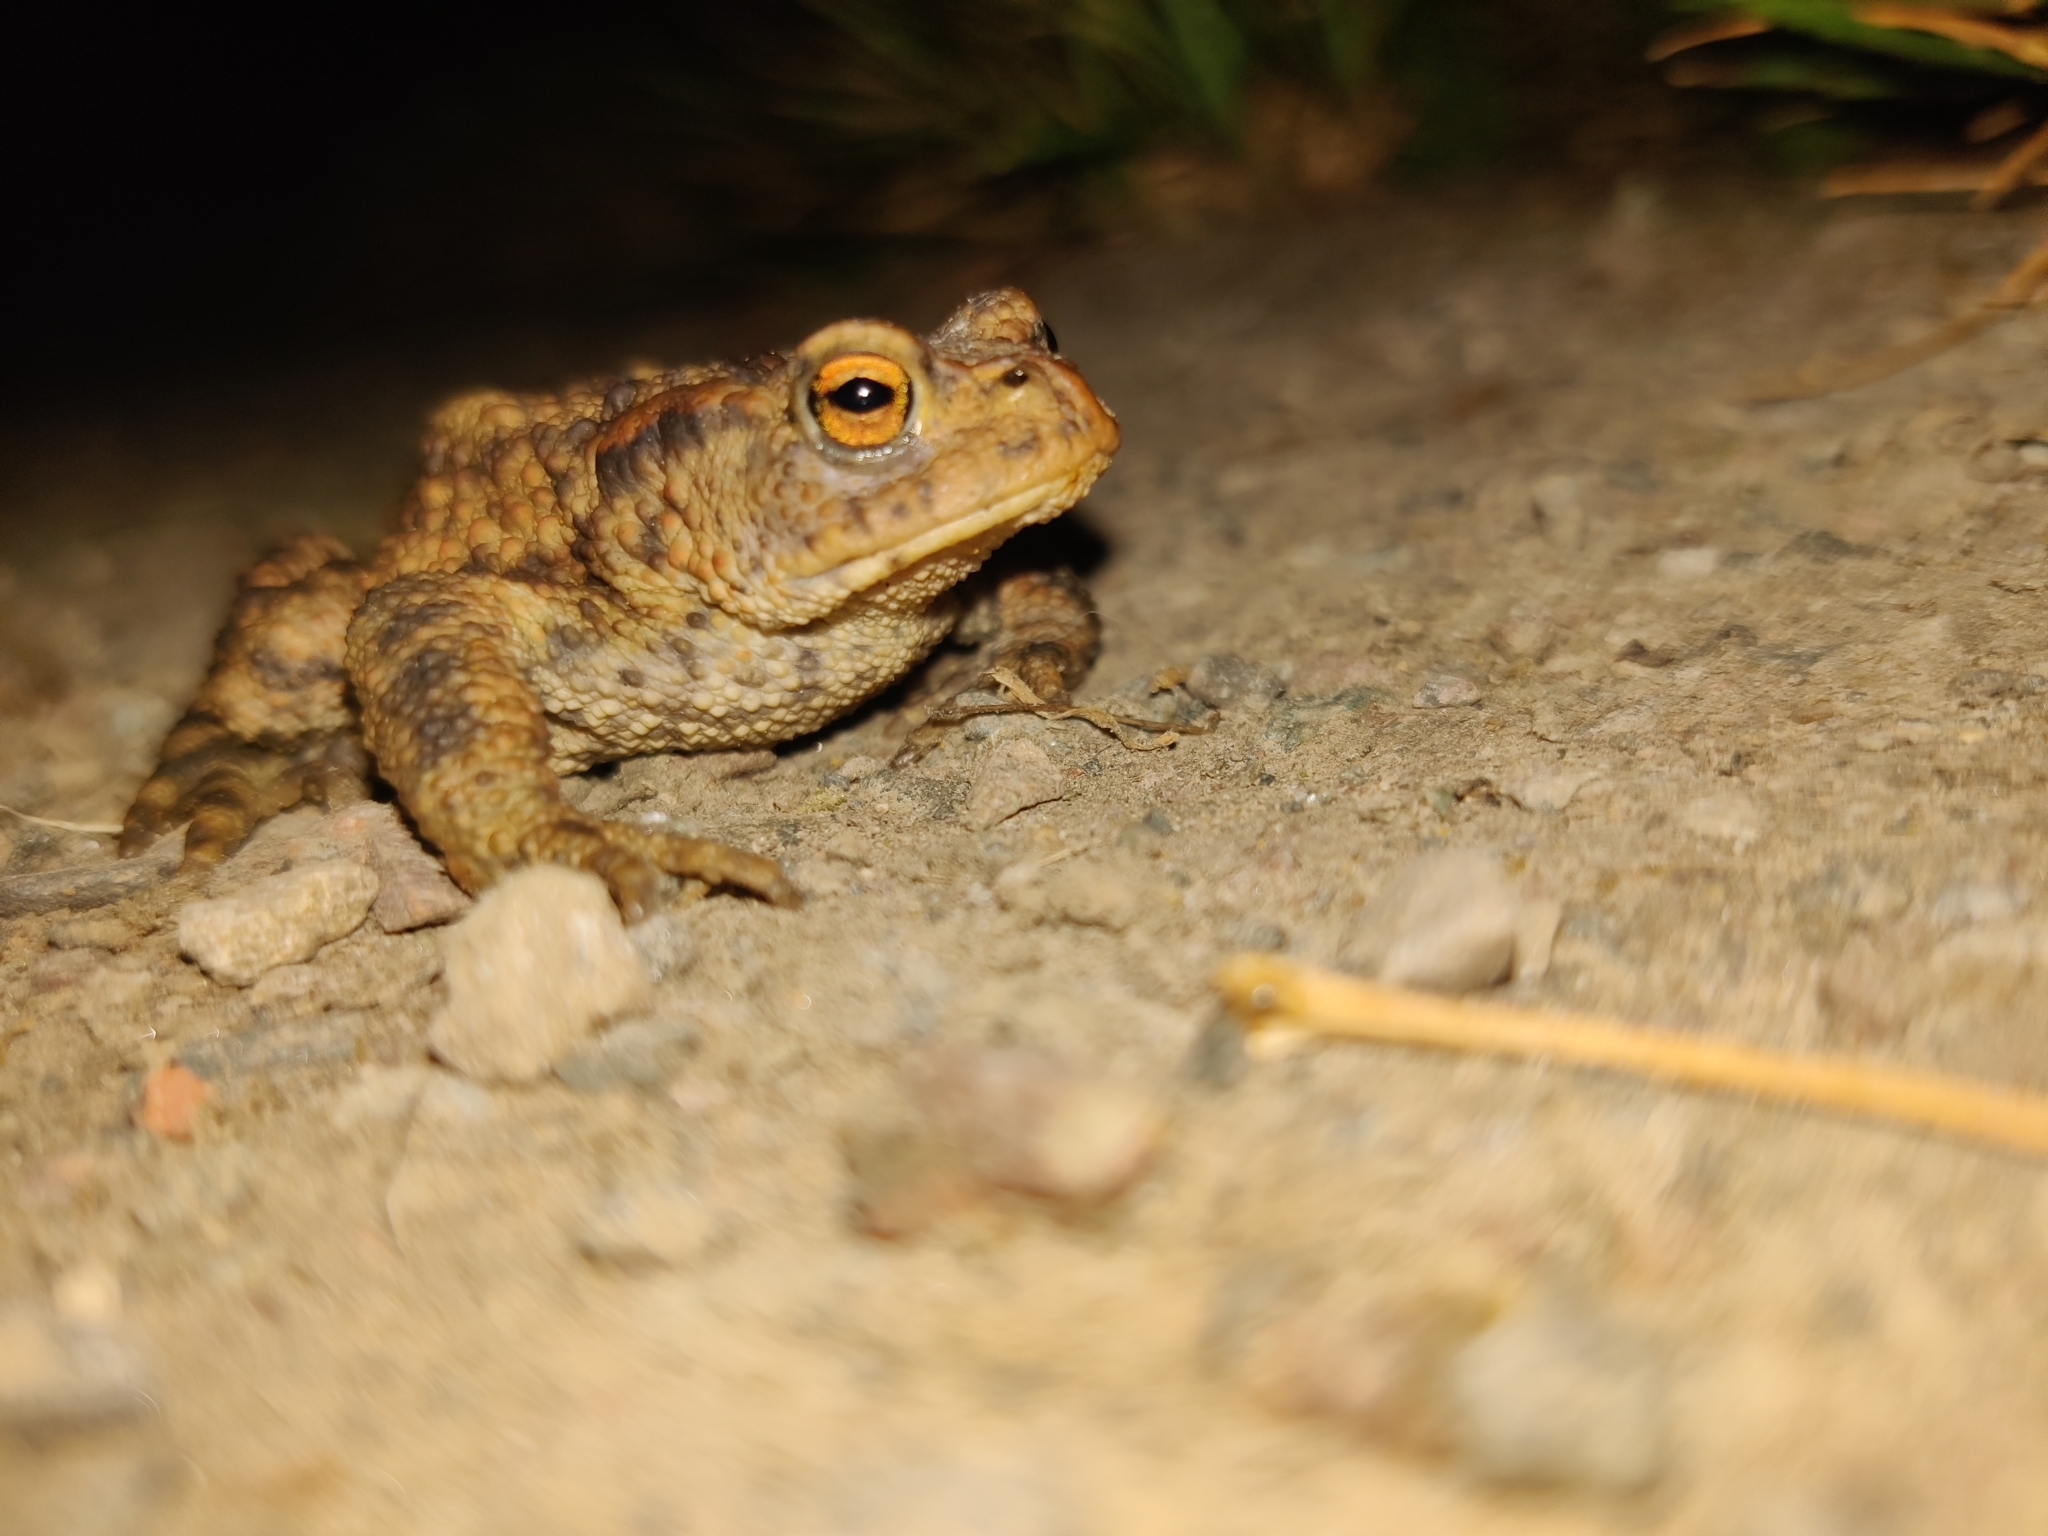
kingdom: Animalia
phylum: Chordata
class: Amphibia
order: Anura
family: Bufonidae
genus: Bufo
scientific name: Bufo bufo
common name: Common toad
